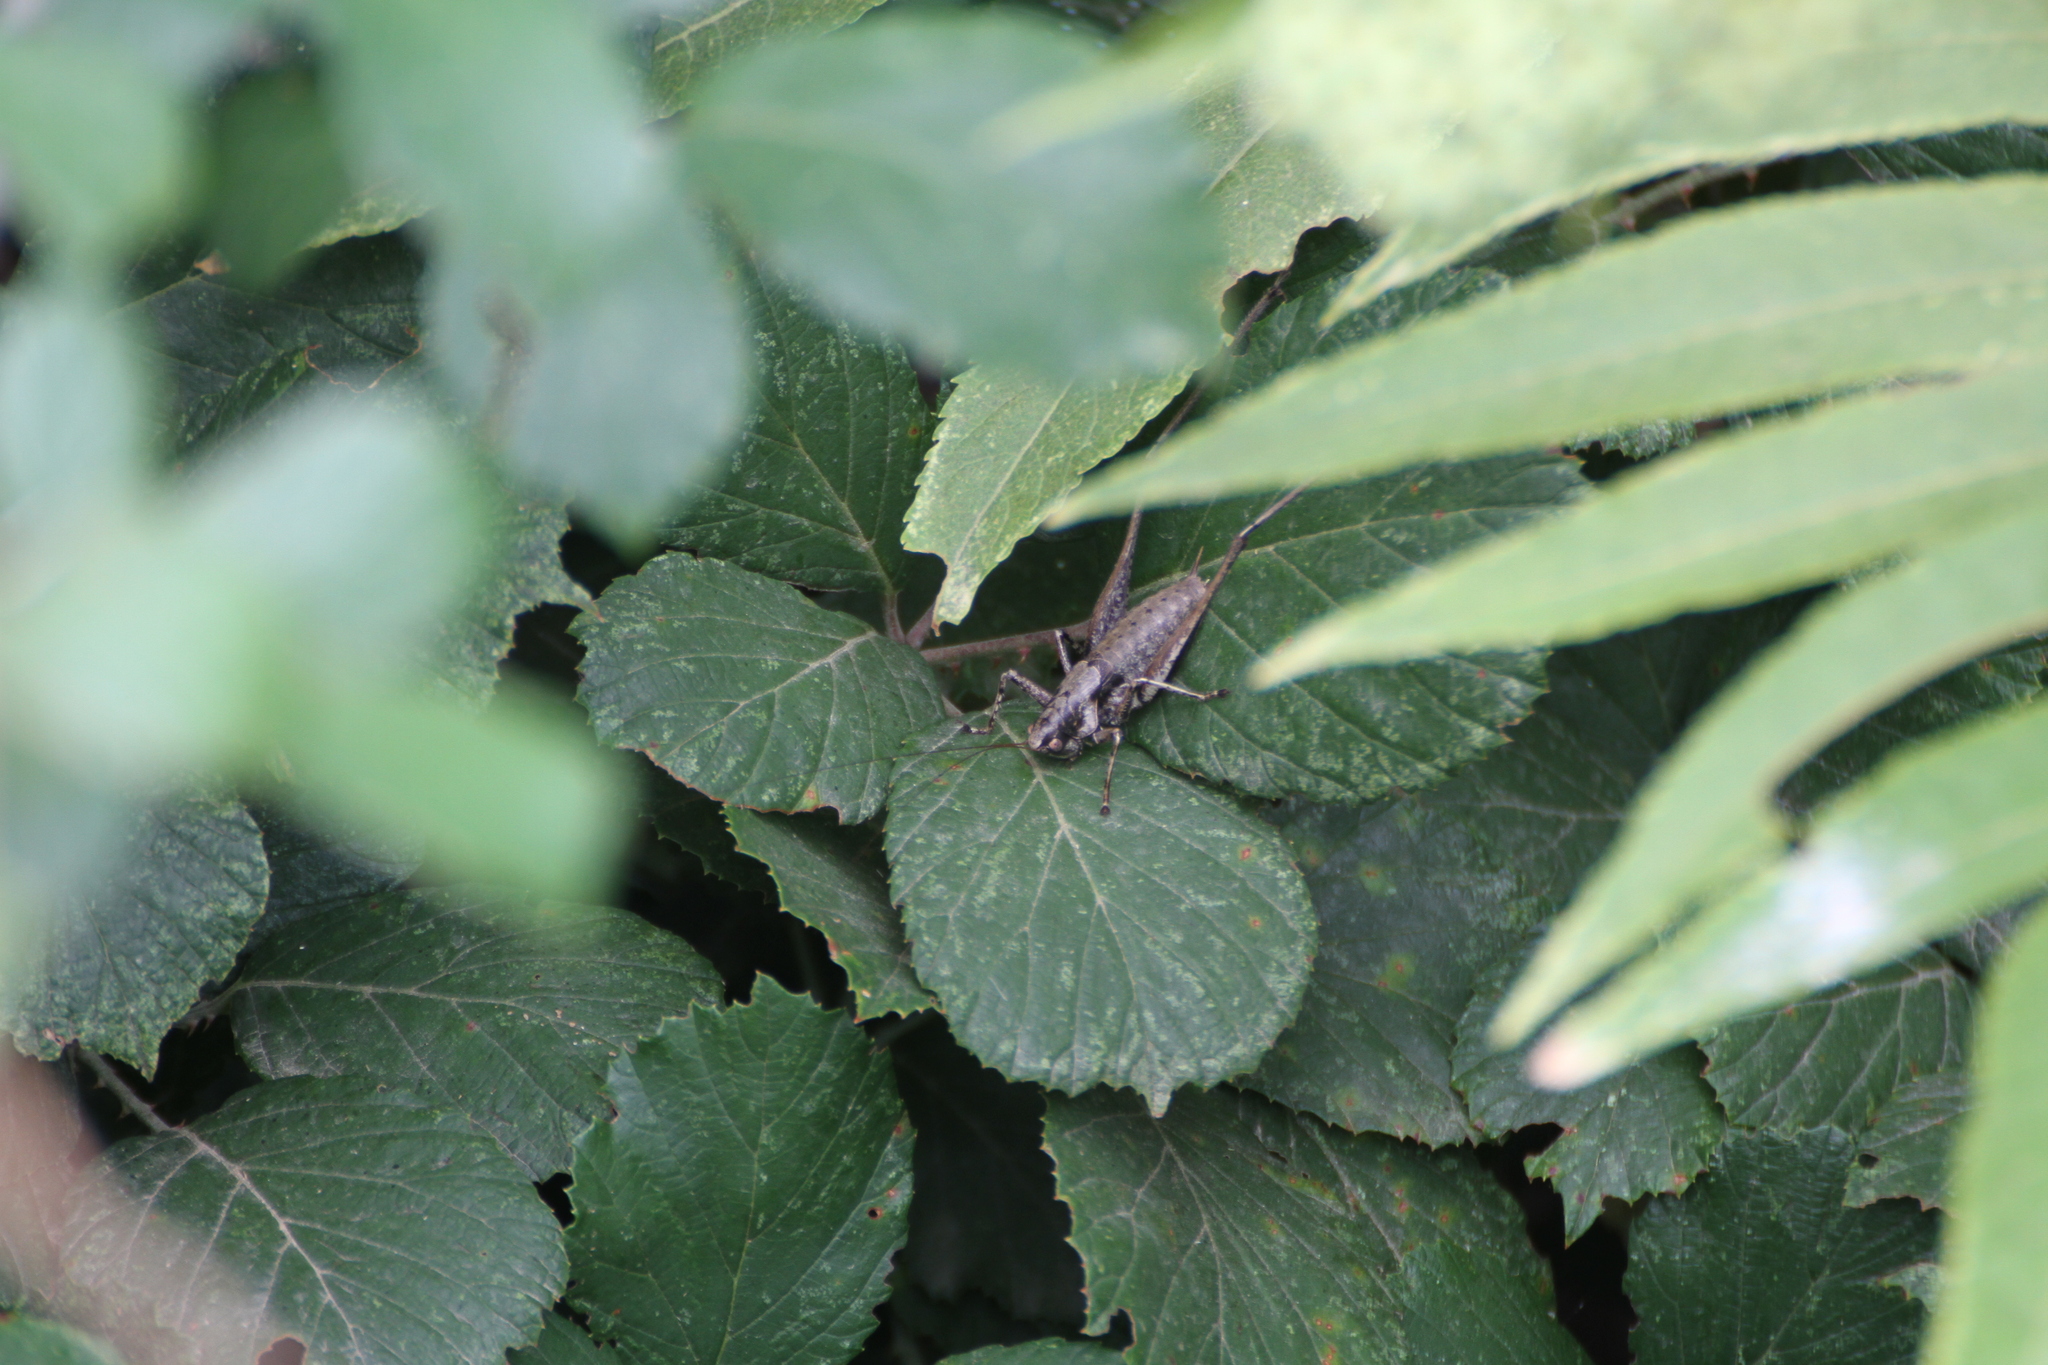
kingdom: Animalia
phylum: Arthropoda
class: Insecta
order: Orthoptera
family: Tettigoniidae
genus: Rhacocleis
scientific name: Rhacocleis poneli
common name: Ponel's bush-cricket
